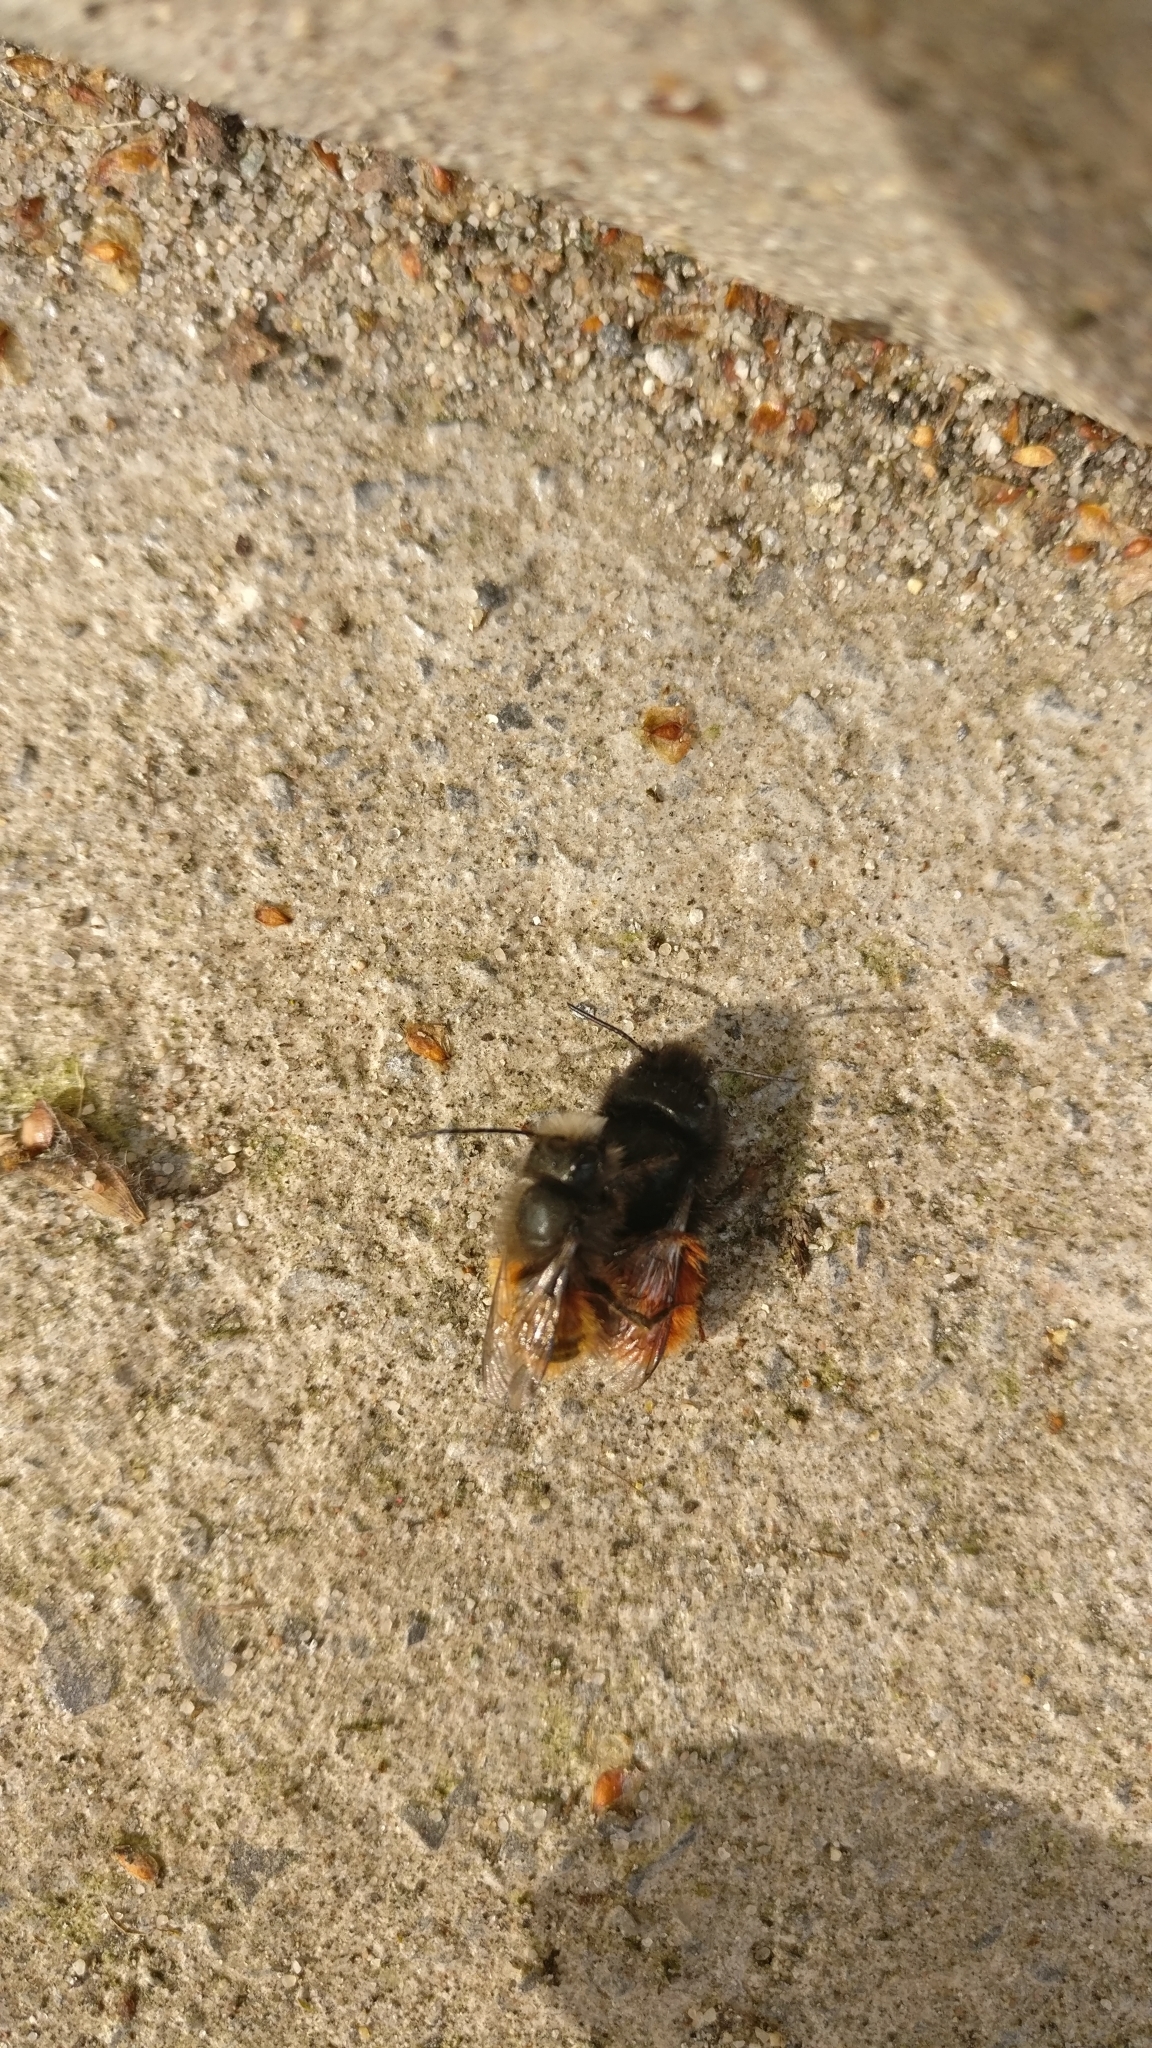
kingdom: Animalia
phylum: Arthropoda
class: Insecta
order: Hymenoptera
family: Megachilidae
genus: Osmia
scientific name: Osmia cornuta
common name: Mason bee
